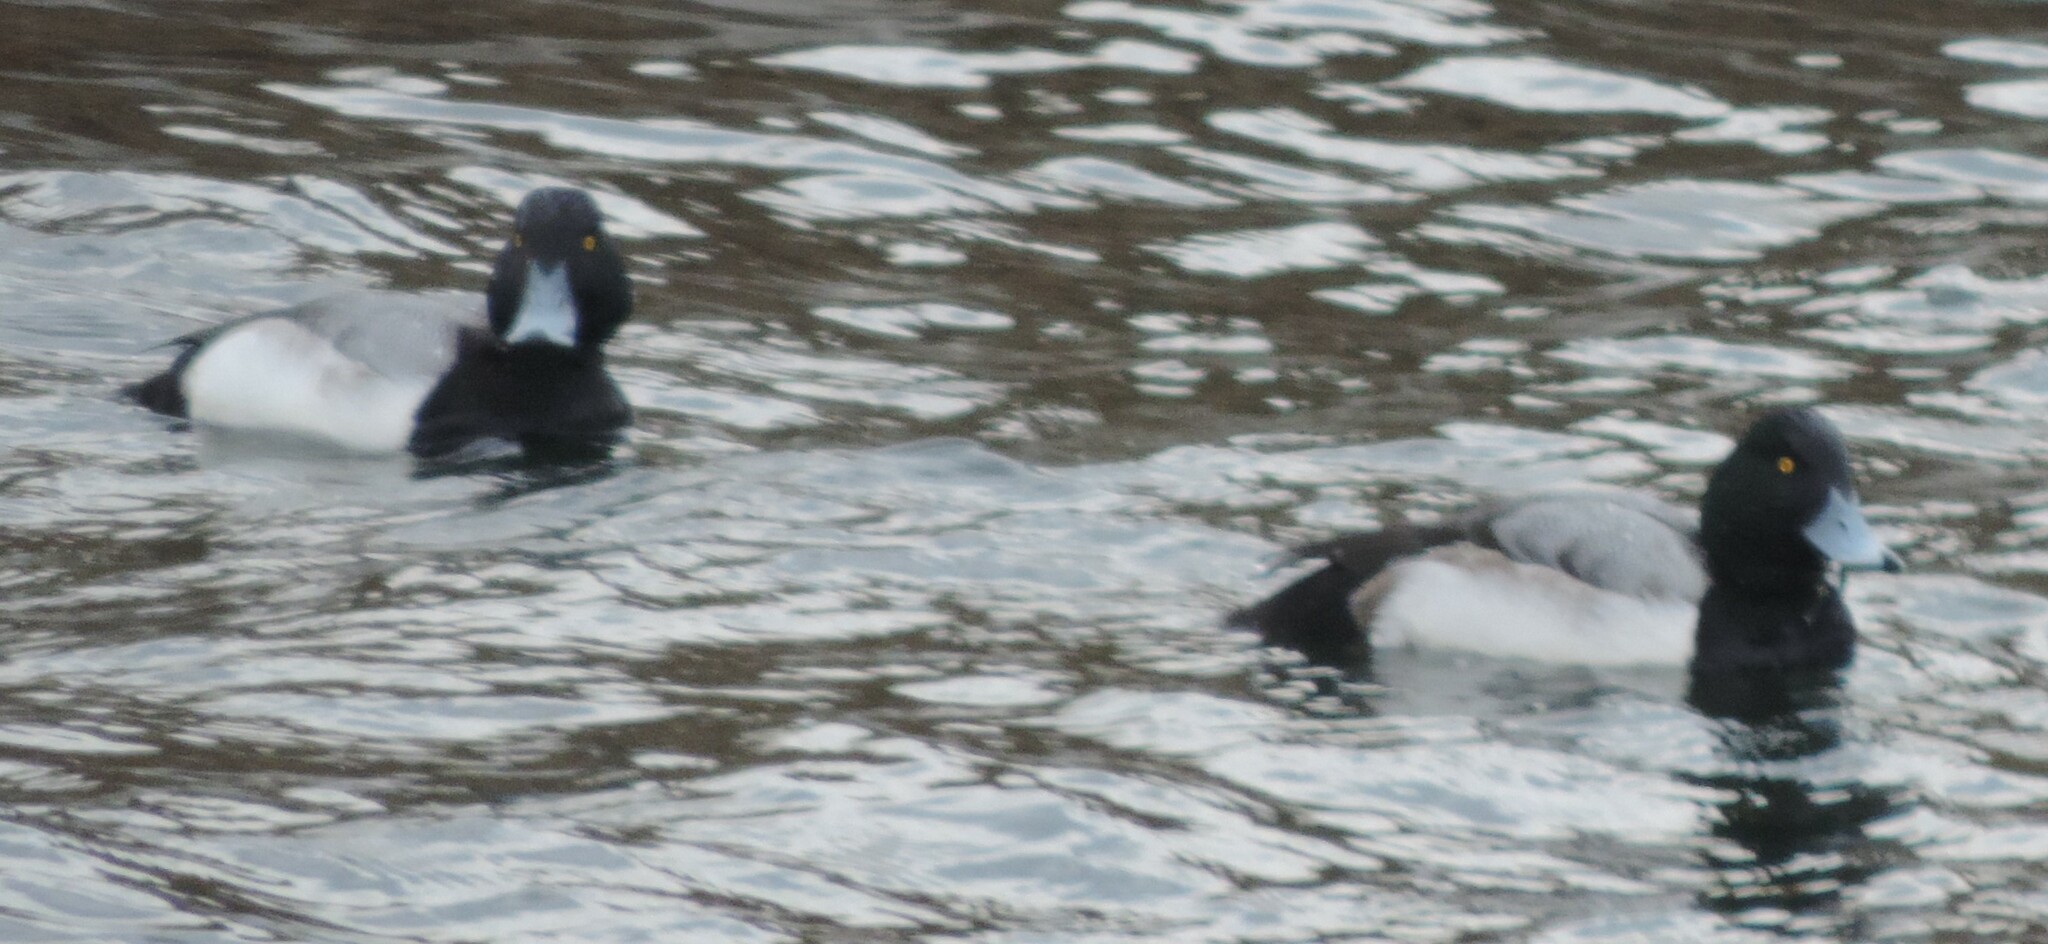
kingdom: Animalia
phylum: Chordata
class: Aves
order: Anseriformes
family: Anatidae
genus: Aythya
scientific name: Aythya marila
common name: Greater scaup
